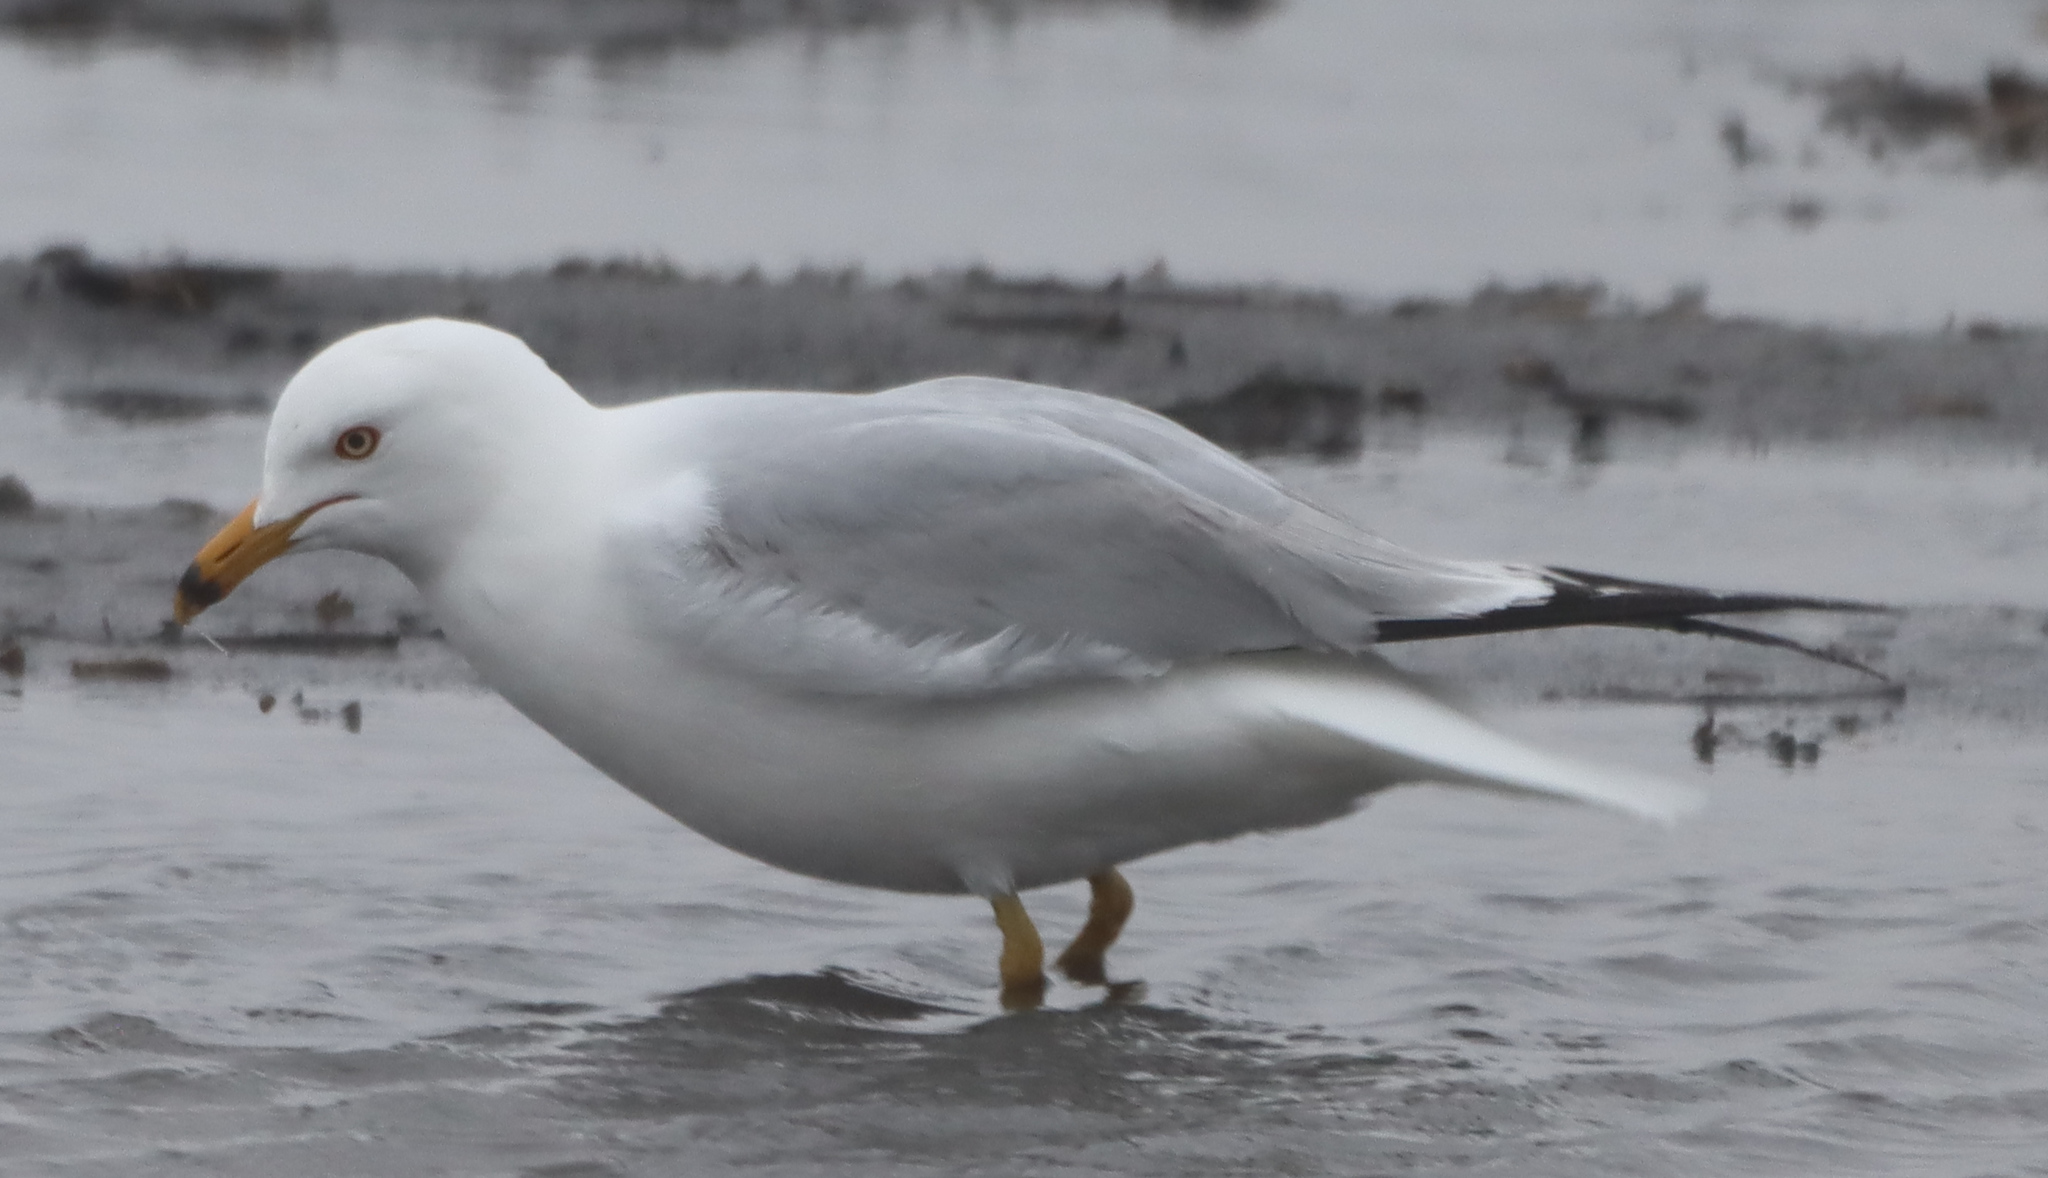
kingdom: Animalia
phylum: Chordata
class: Aves
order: Charadriiformes
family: Laridae
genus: Larus
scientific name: Larus delawarensis
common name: Ring-billed gull
